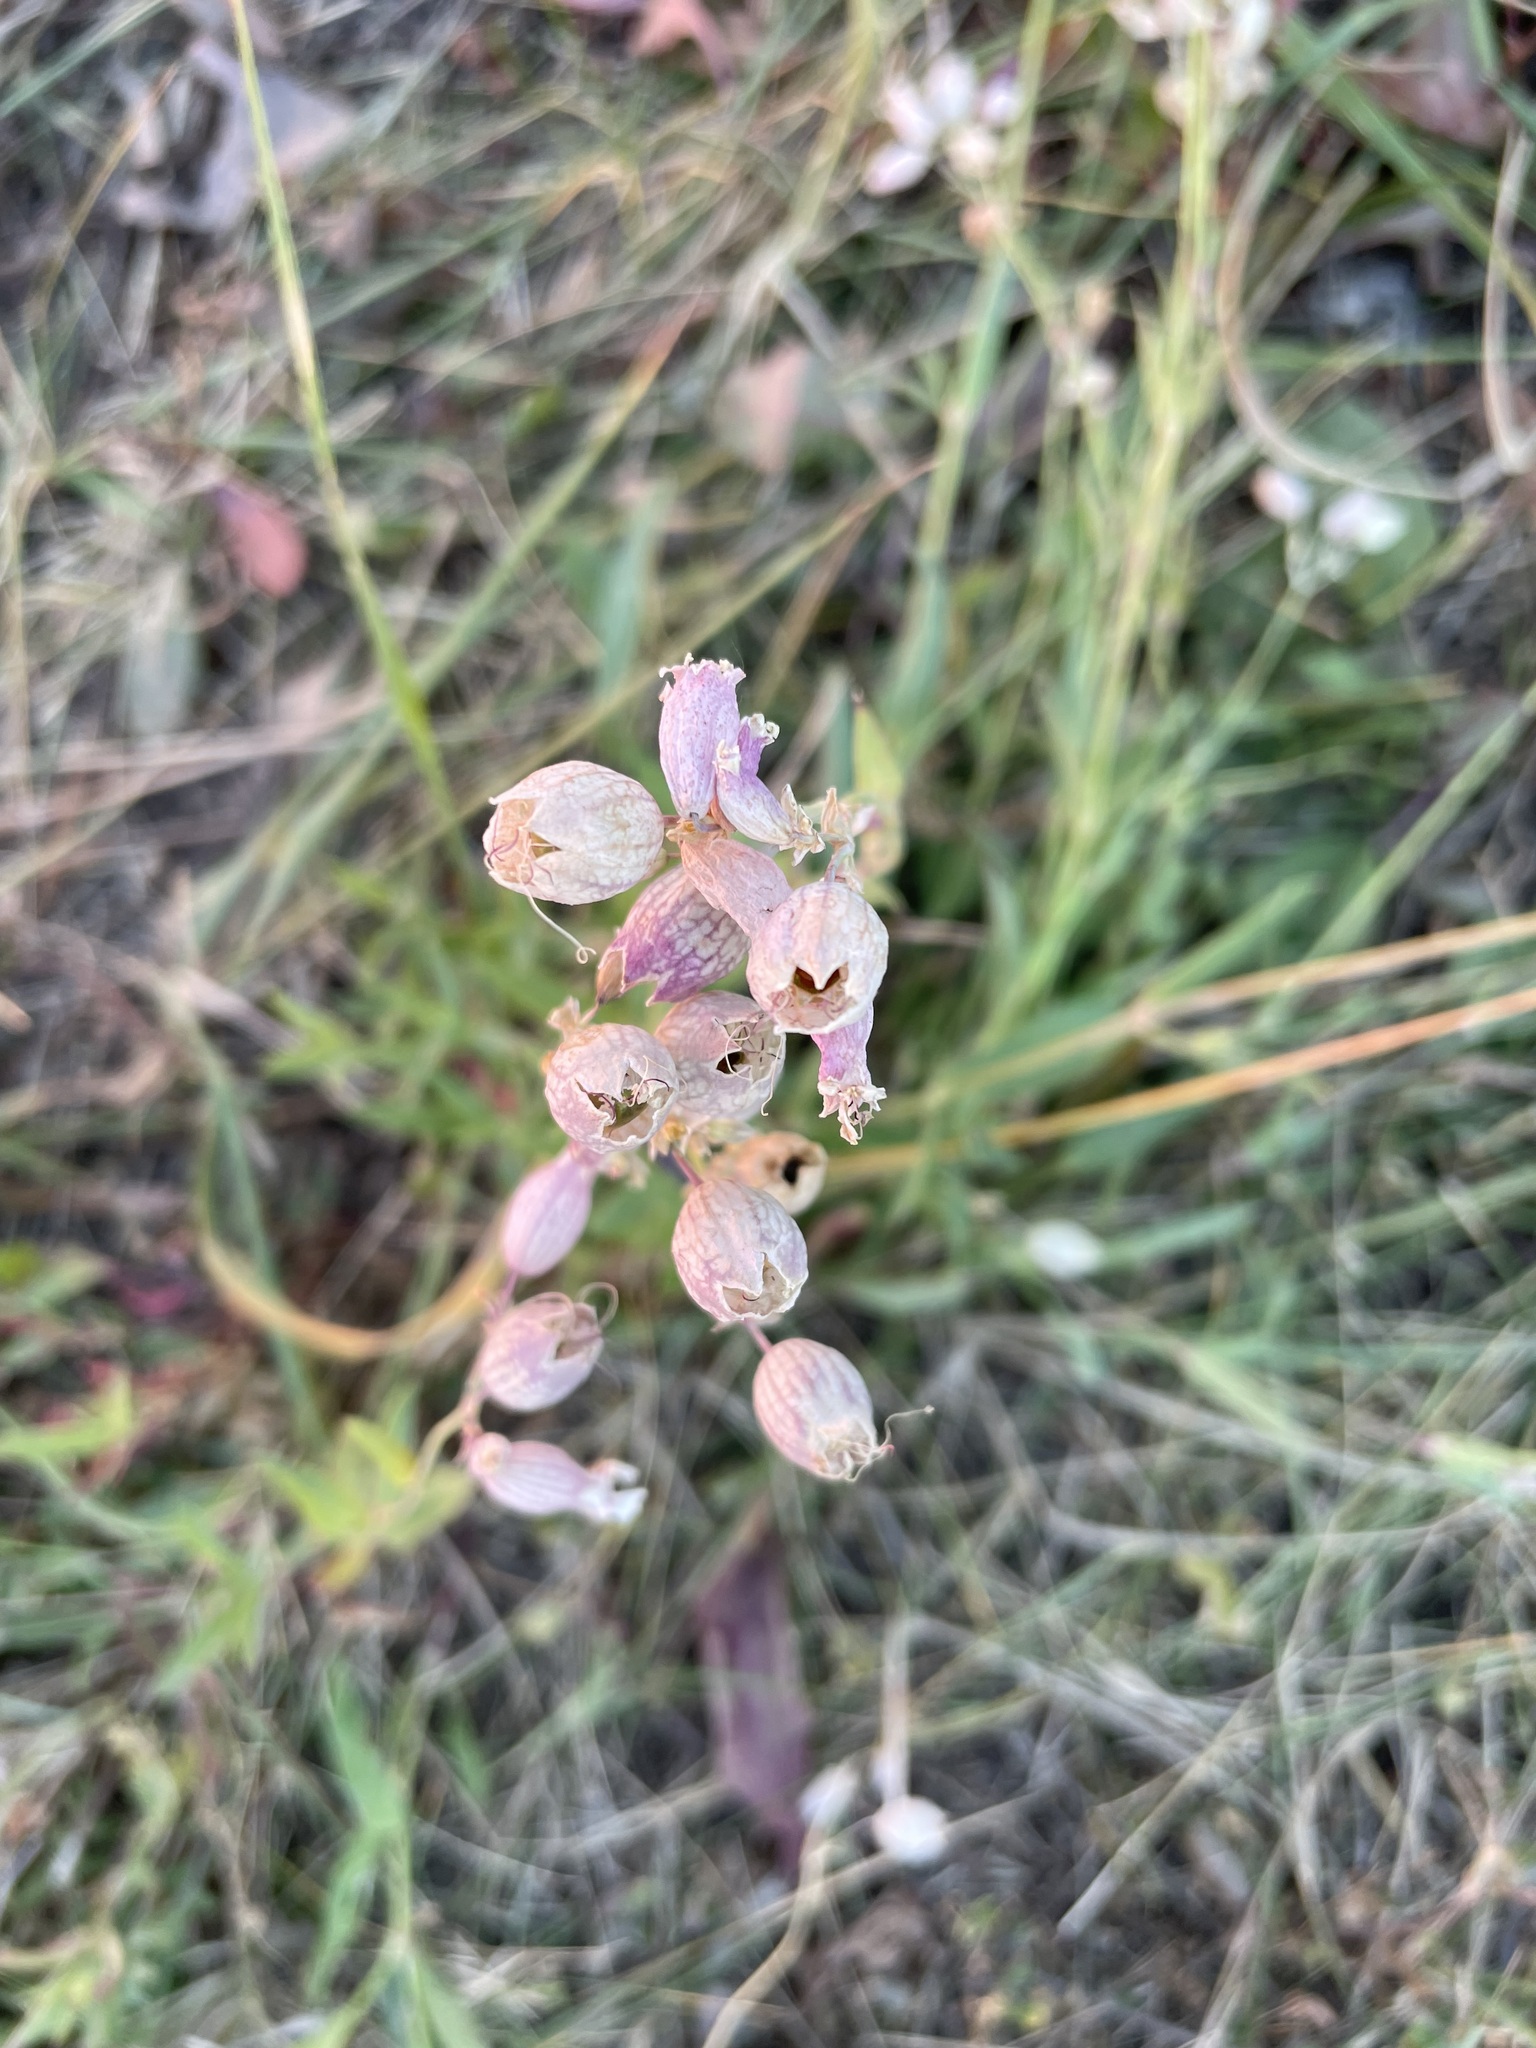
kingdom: Plantae
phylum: Tracheophyta
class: Magnoliopsida
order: Caryophyllales
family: Caryophyllaceae
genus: Silene
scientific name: Silene vulgaris
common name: Bladder campion
